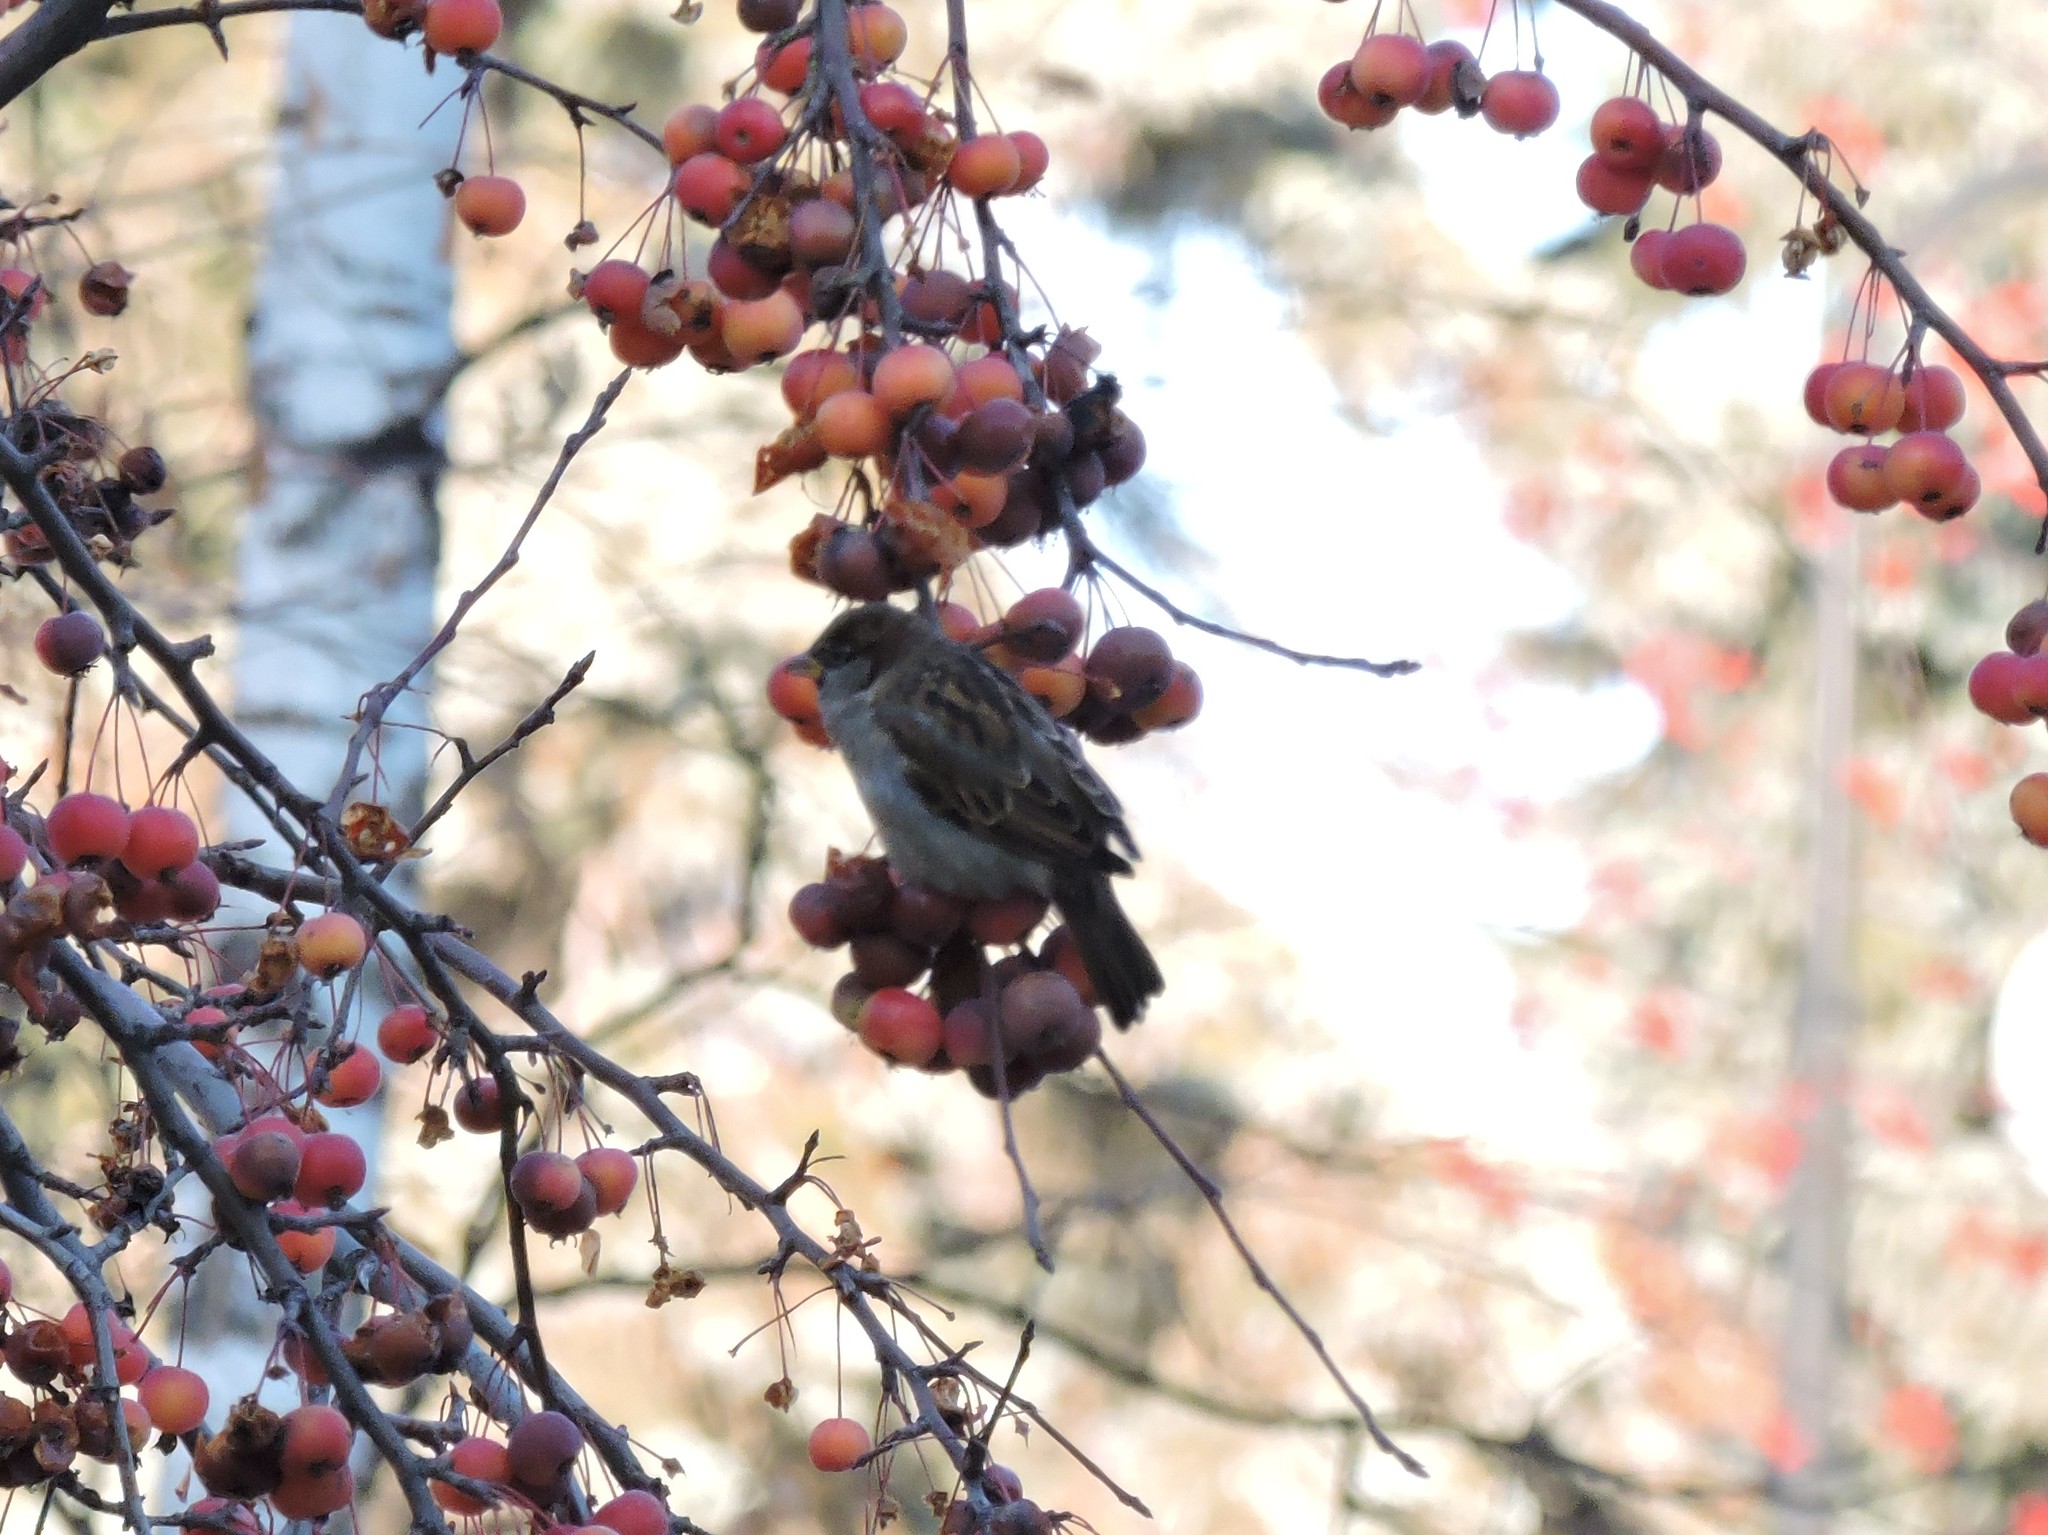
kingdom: Animalia
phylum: Chordata
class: Aves
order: Passeriformes
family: Passeridae
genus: Passer
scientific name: Passer domesticus
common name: House sparrow
